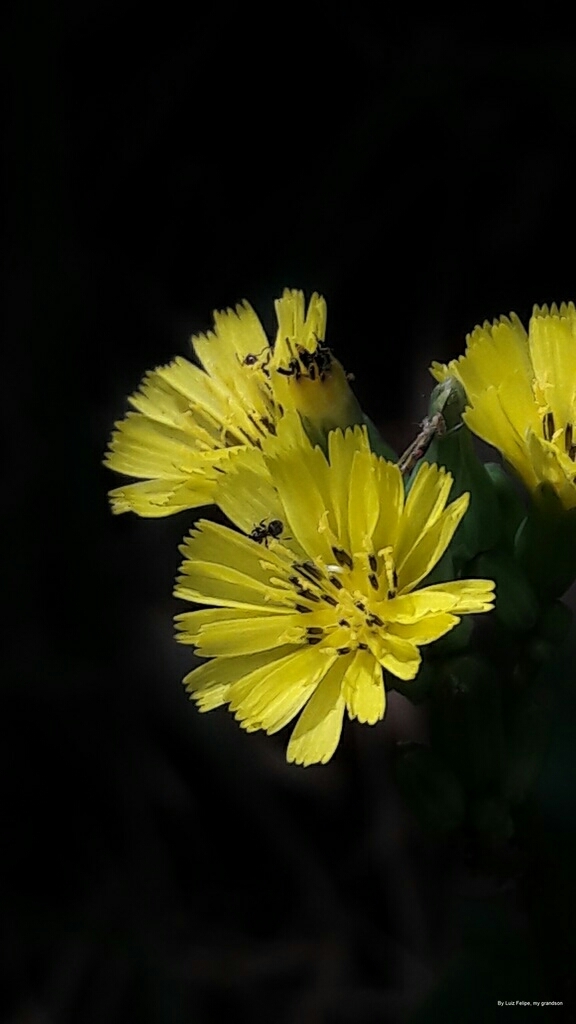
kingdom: Plantae
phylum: Tracheophyta
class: Magnoliopsida
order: Asterales
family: Asteraceae
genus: Youngia
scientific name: Youngia japonica
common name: Oriental false hawksbeard
